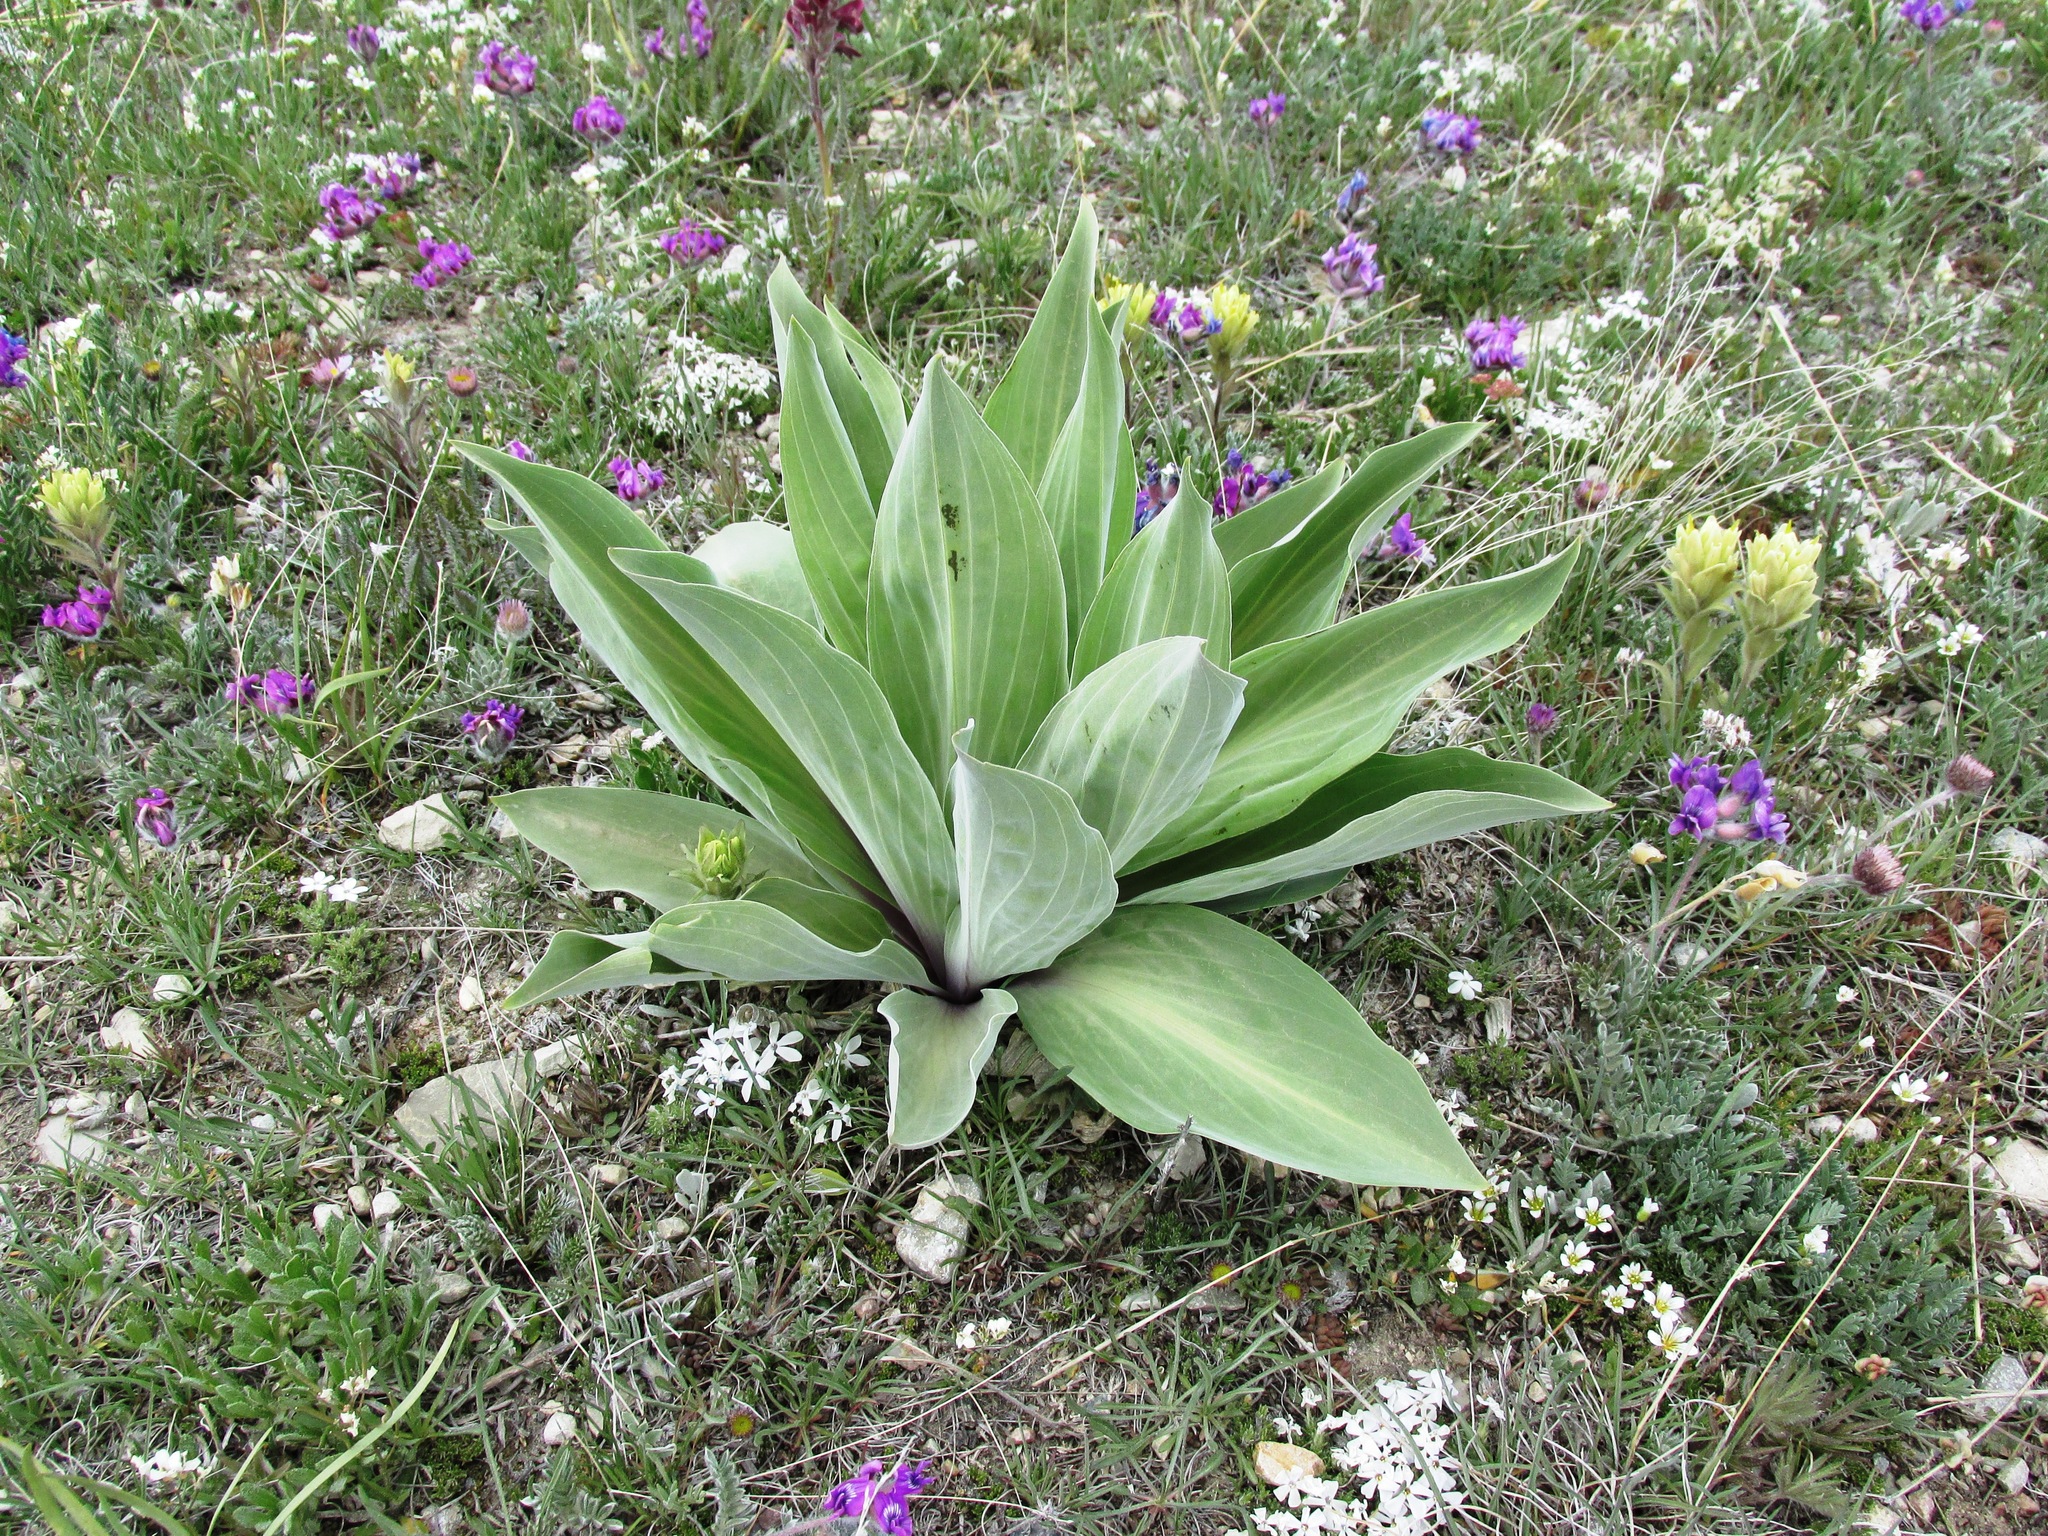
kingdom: Plantae
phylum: Tracheophyta
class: Magnoliopsida
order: Gentianales
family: Gentianaceae
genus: Frasera
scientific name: Frasera speciosa
